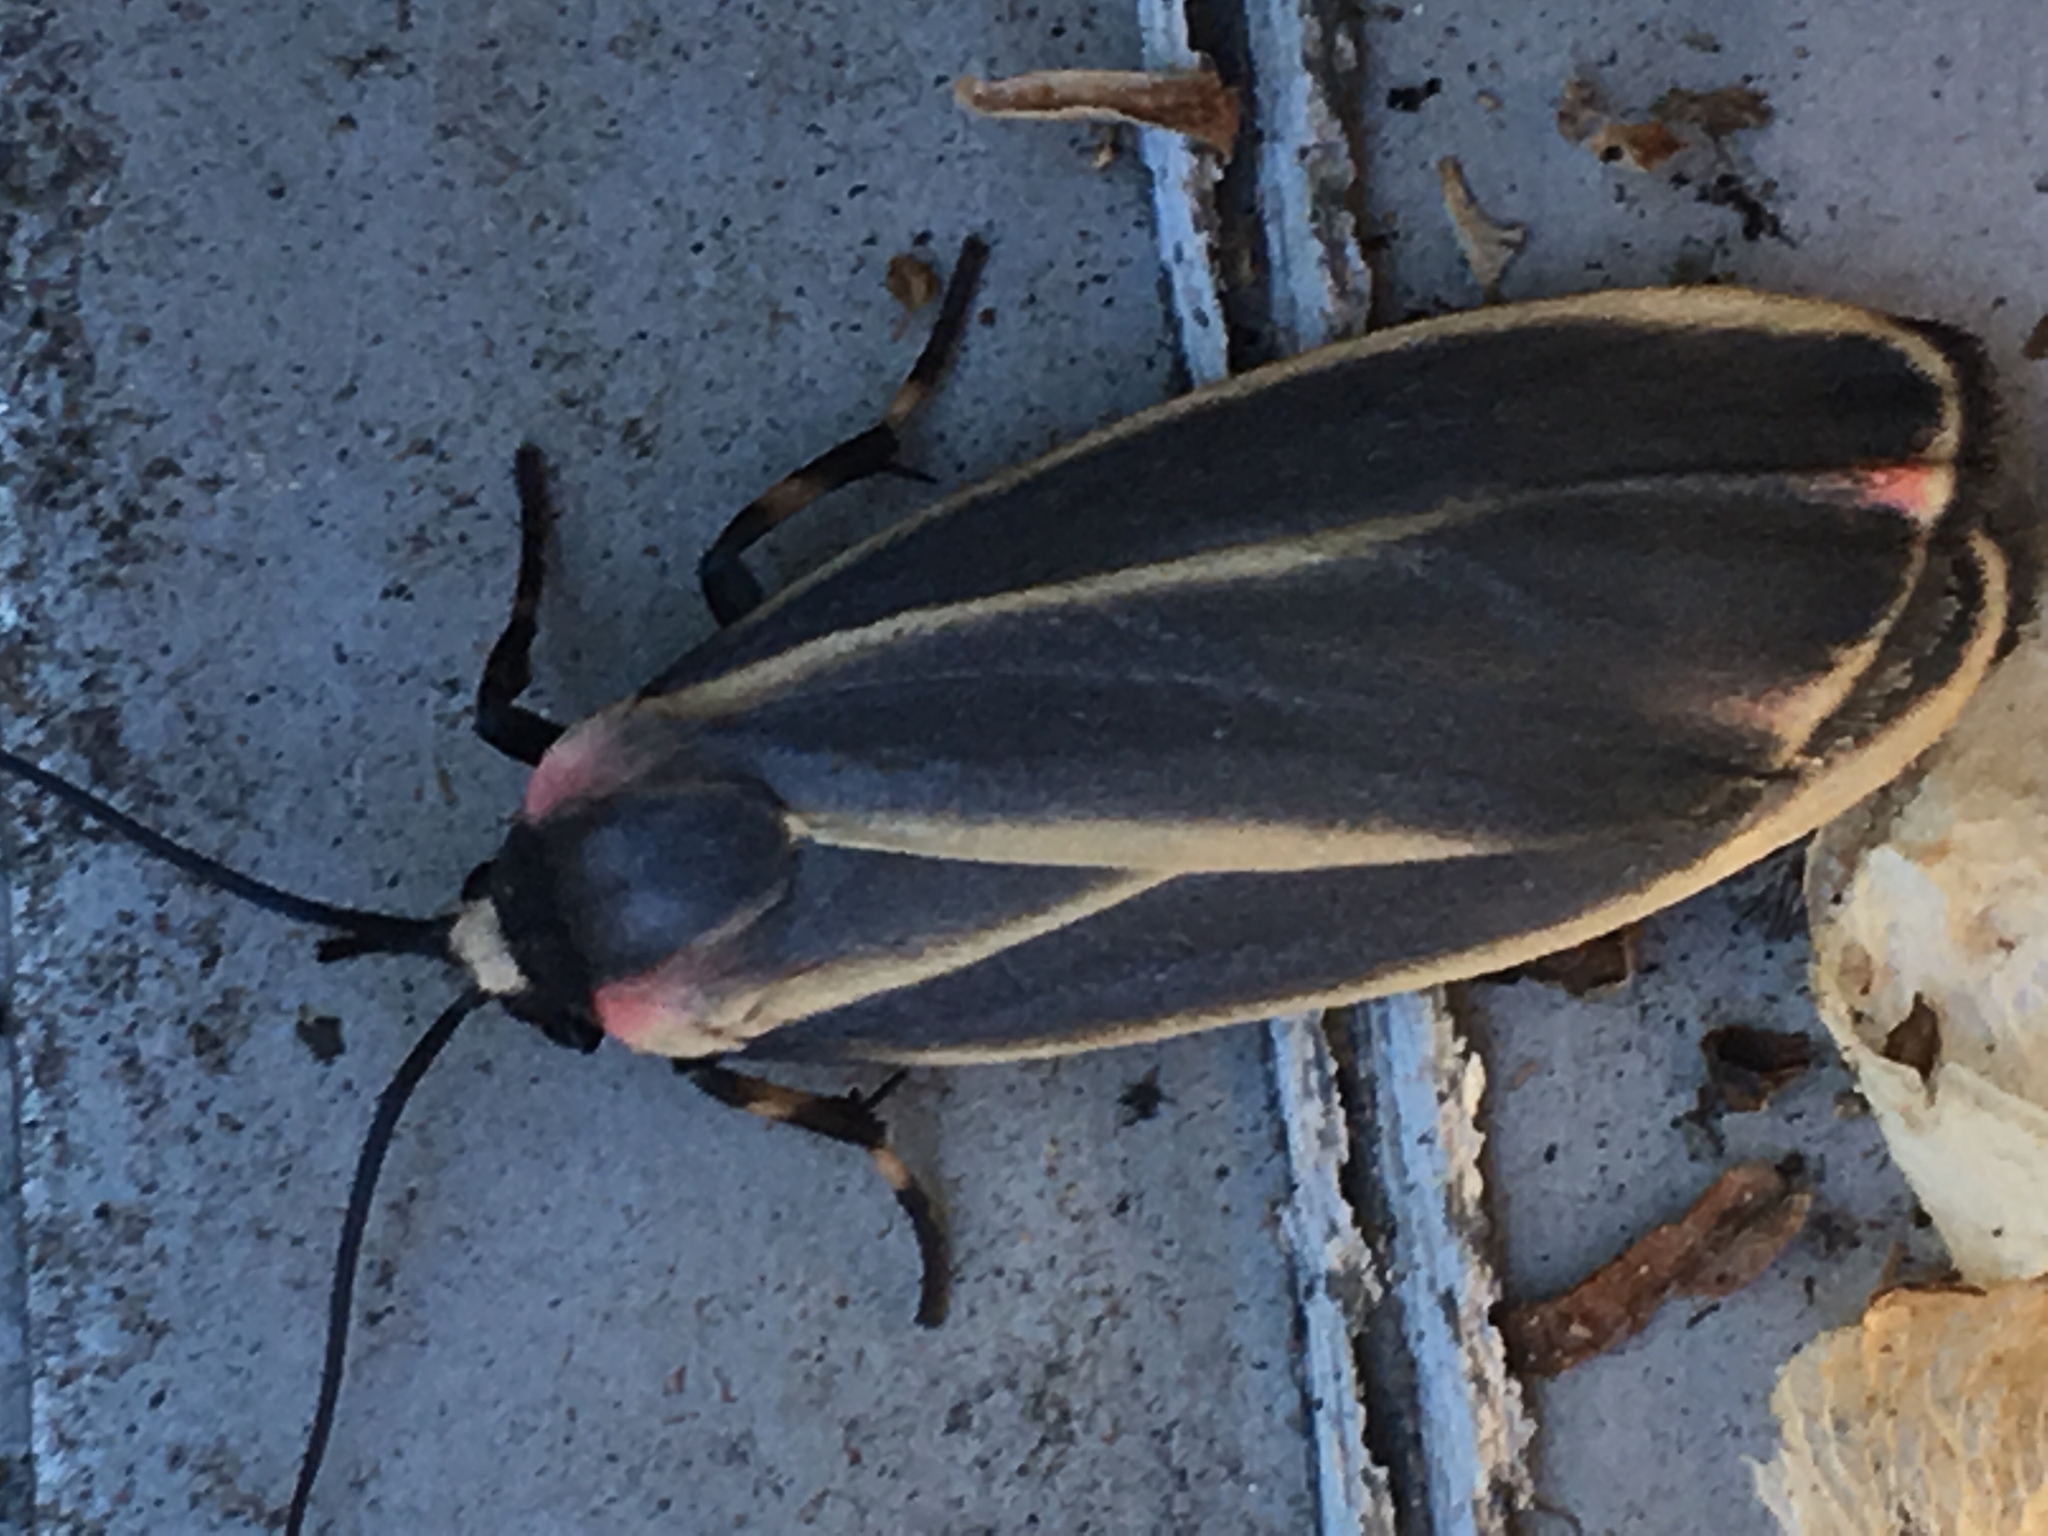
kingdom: Animalia
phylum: Arthropoda
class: Insecta
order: Lepidoptera
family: Erebidae
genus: Hypoprepia
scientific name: Hypoprepia fucosa
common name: Painted lichen moth
